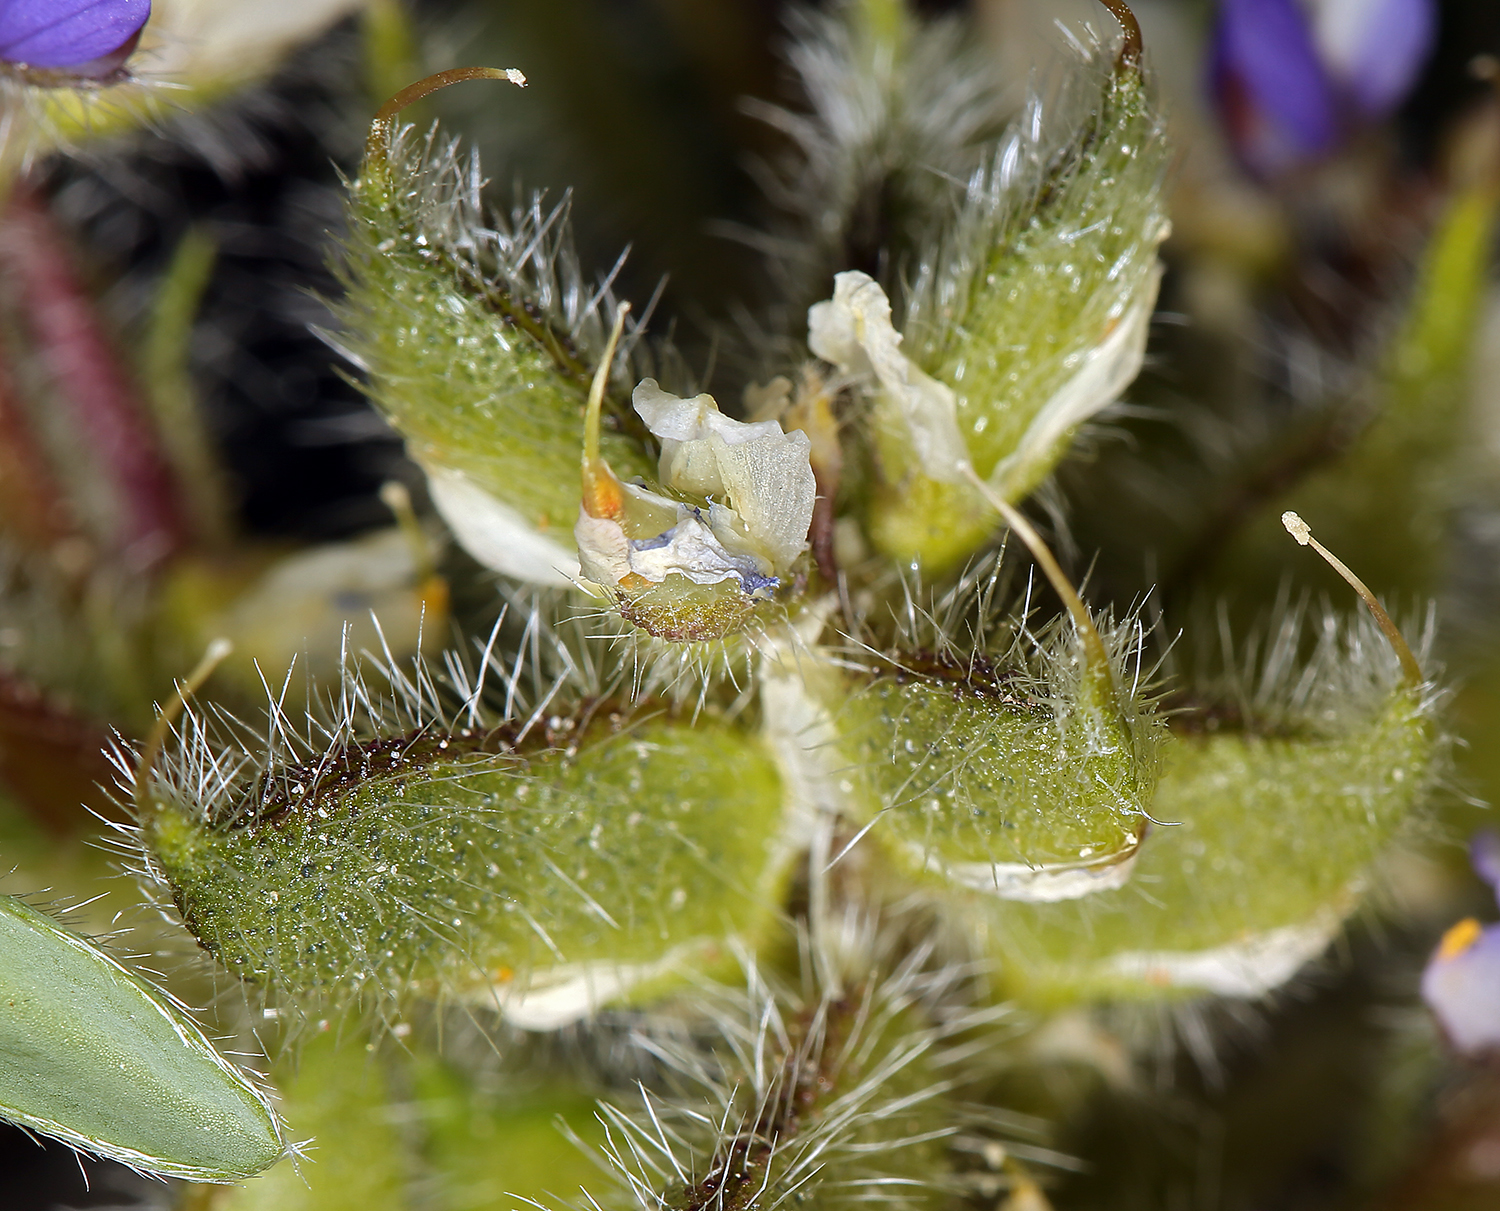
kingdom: Plantae
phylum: Tracheophyta
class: Magnoliopsida
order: Fabales
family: Fabaceae
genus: Lupinus
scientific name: Lupinus pusillus
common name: Low lupine
